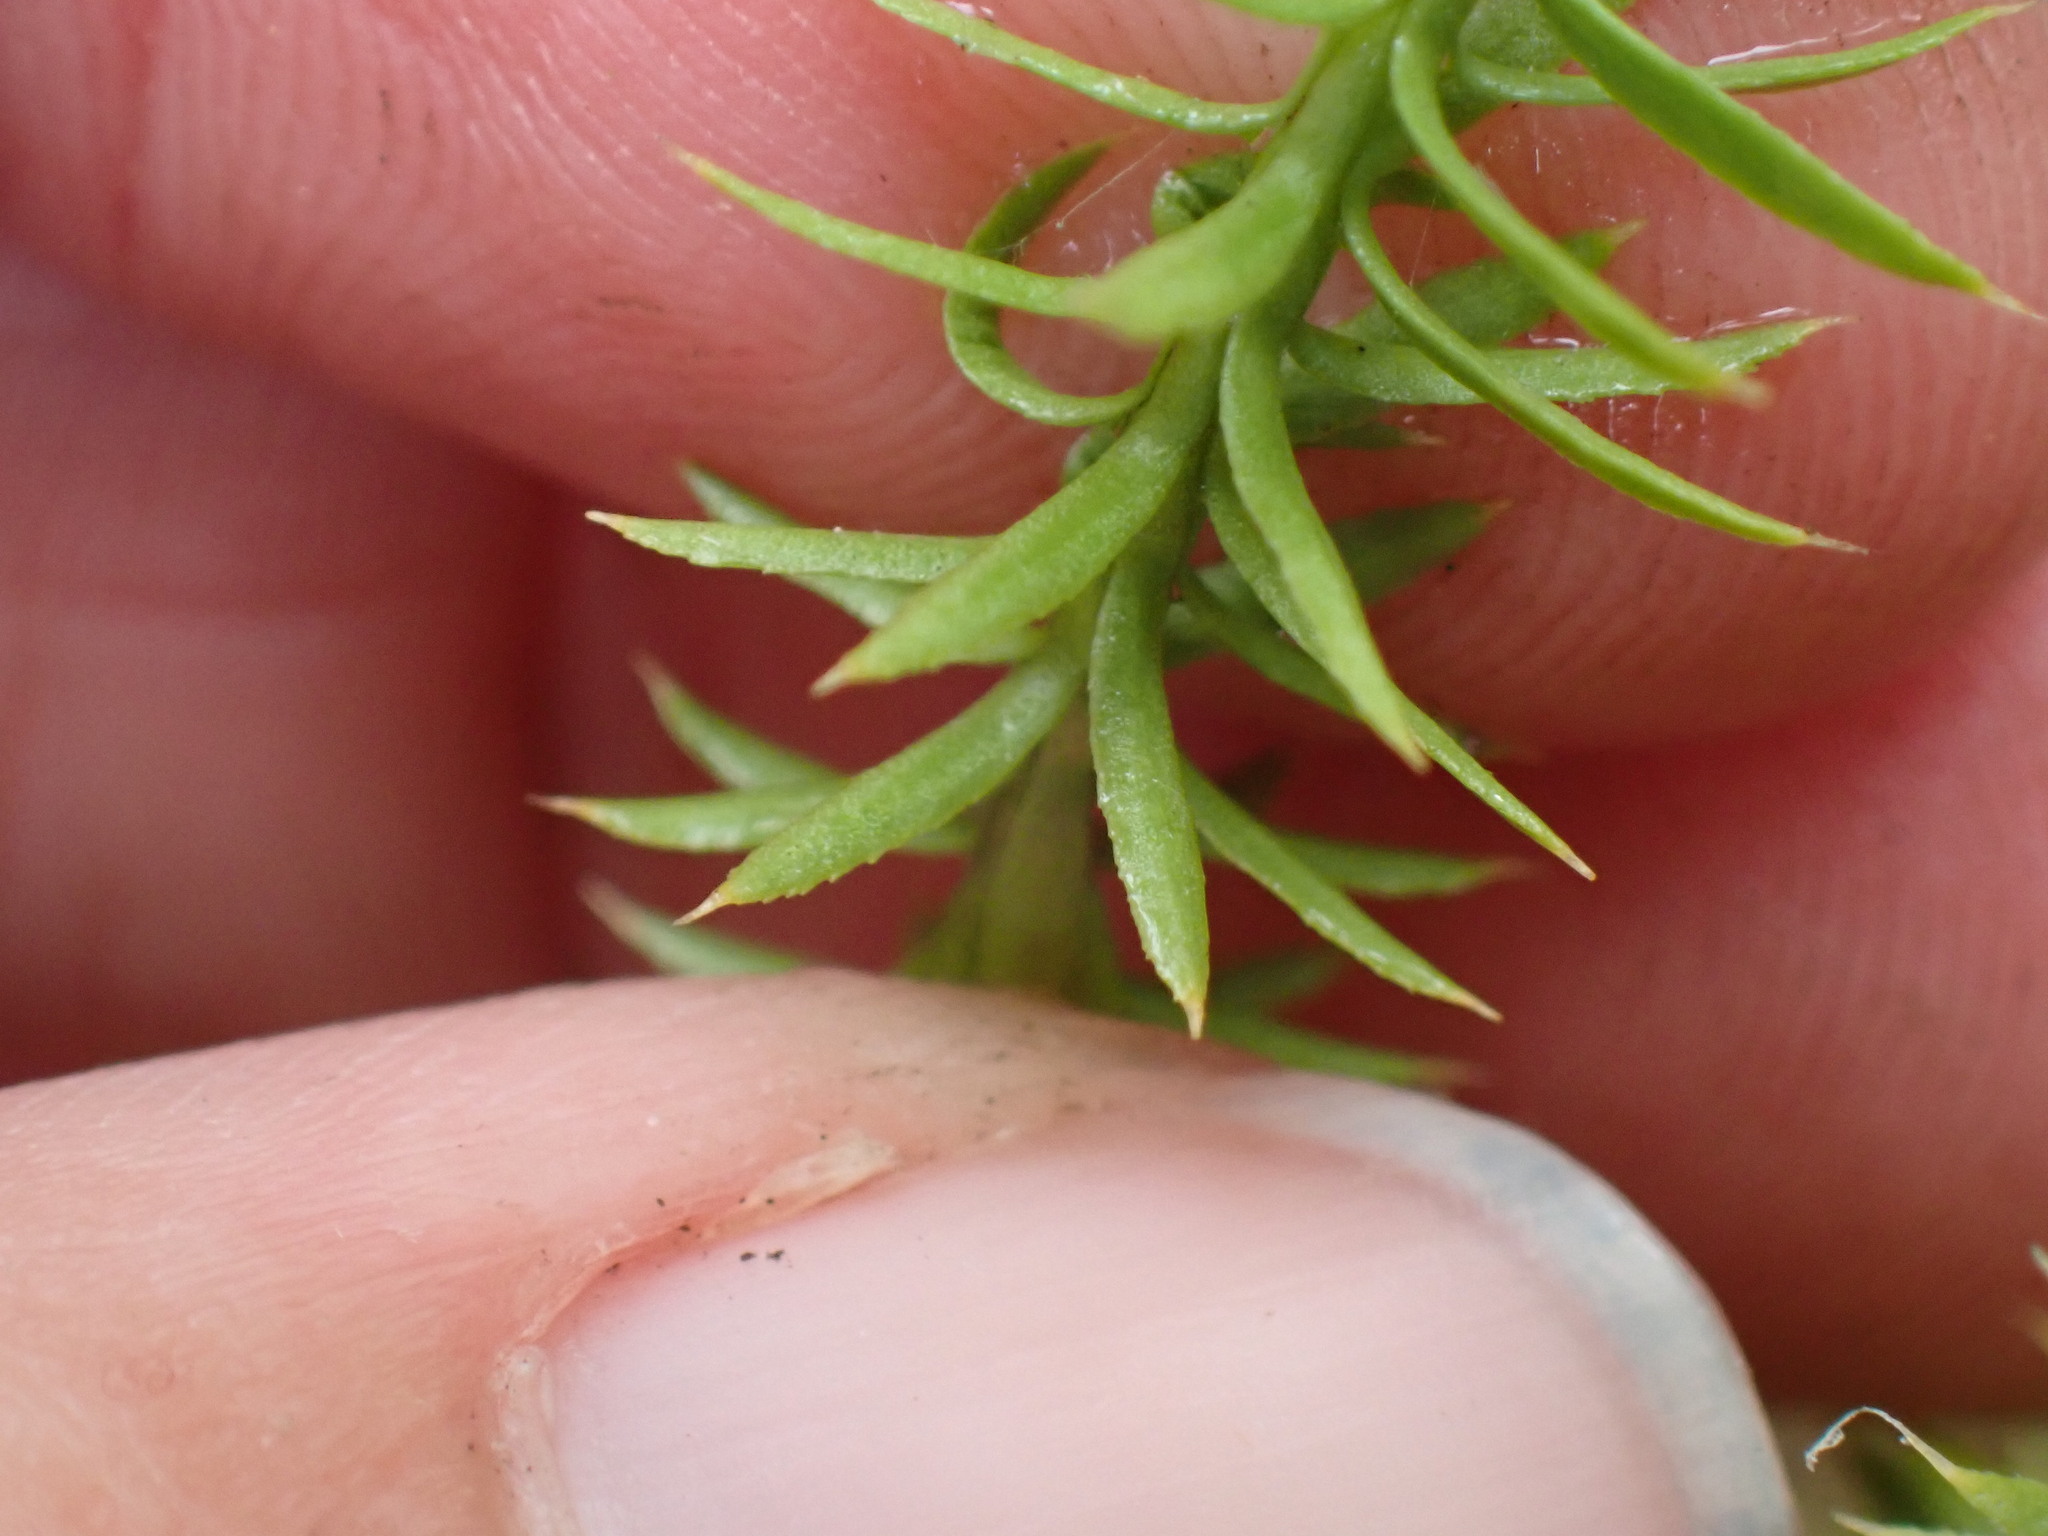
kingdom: Plantae
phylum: Tracheophyta
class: Lycopodiopsida
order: Lycopodiales
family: Lycopodiaceae
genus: Spinulum
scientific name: Spinulum annotinum
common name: Interrupted club-moss
